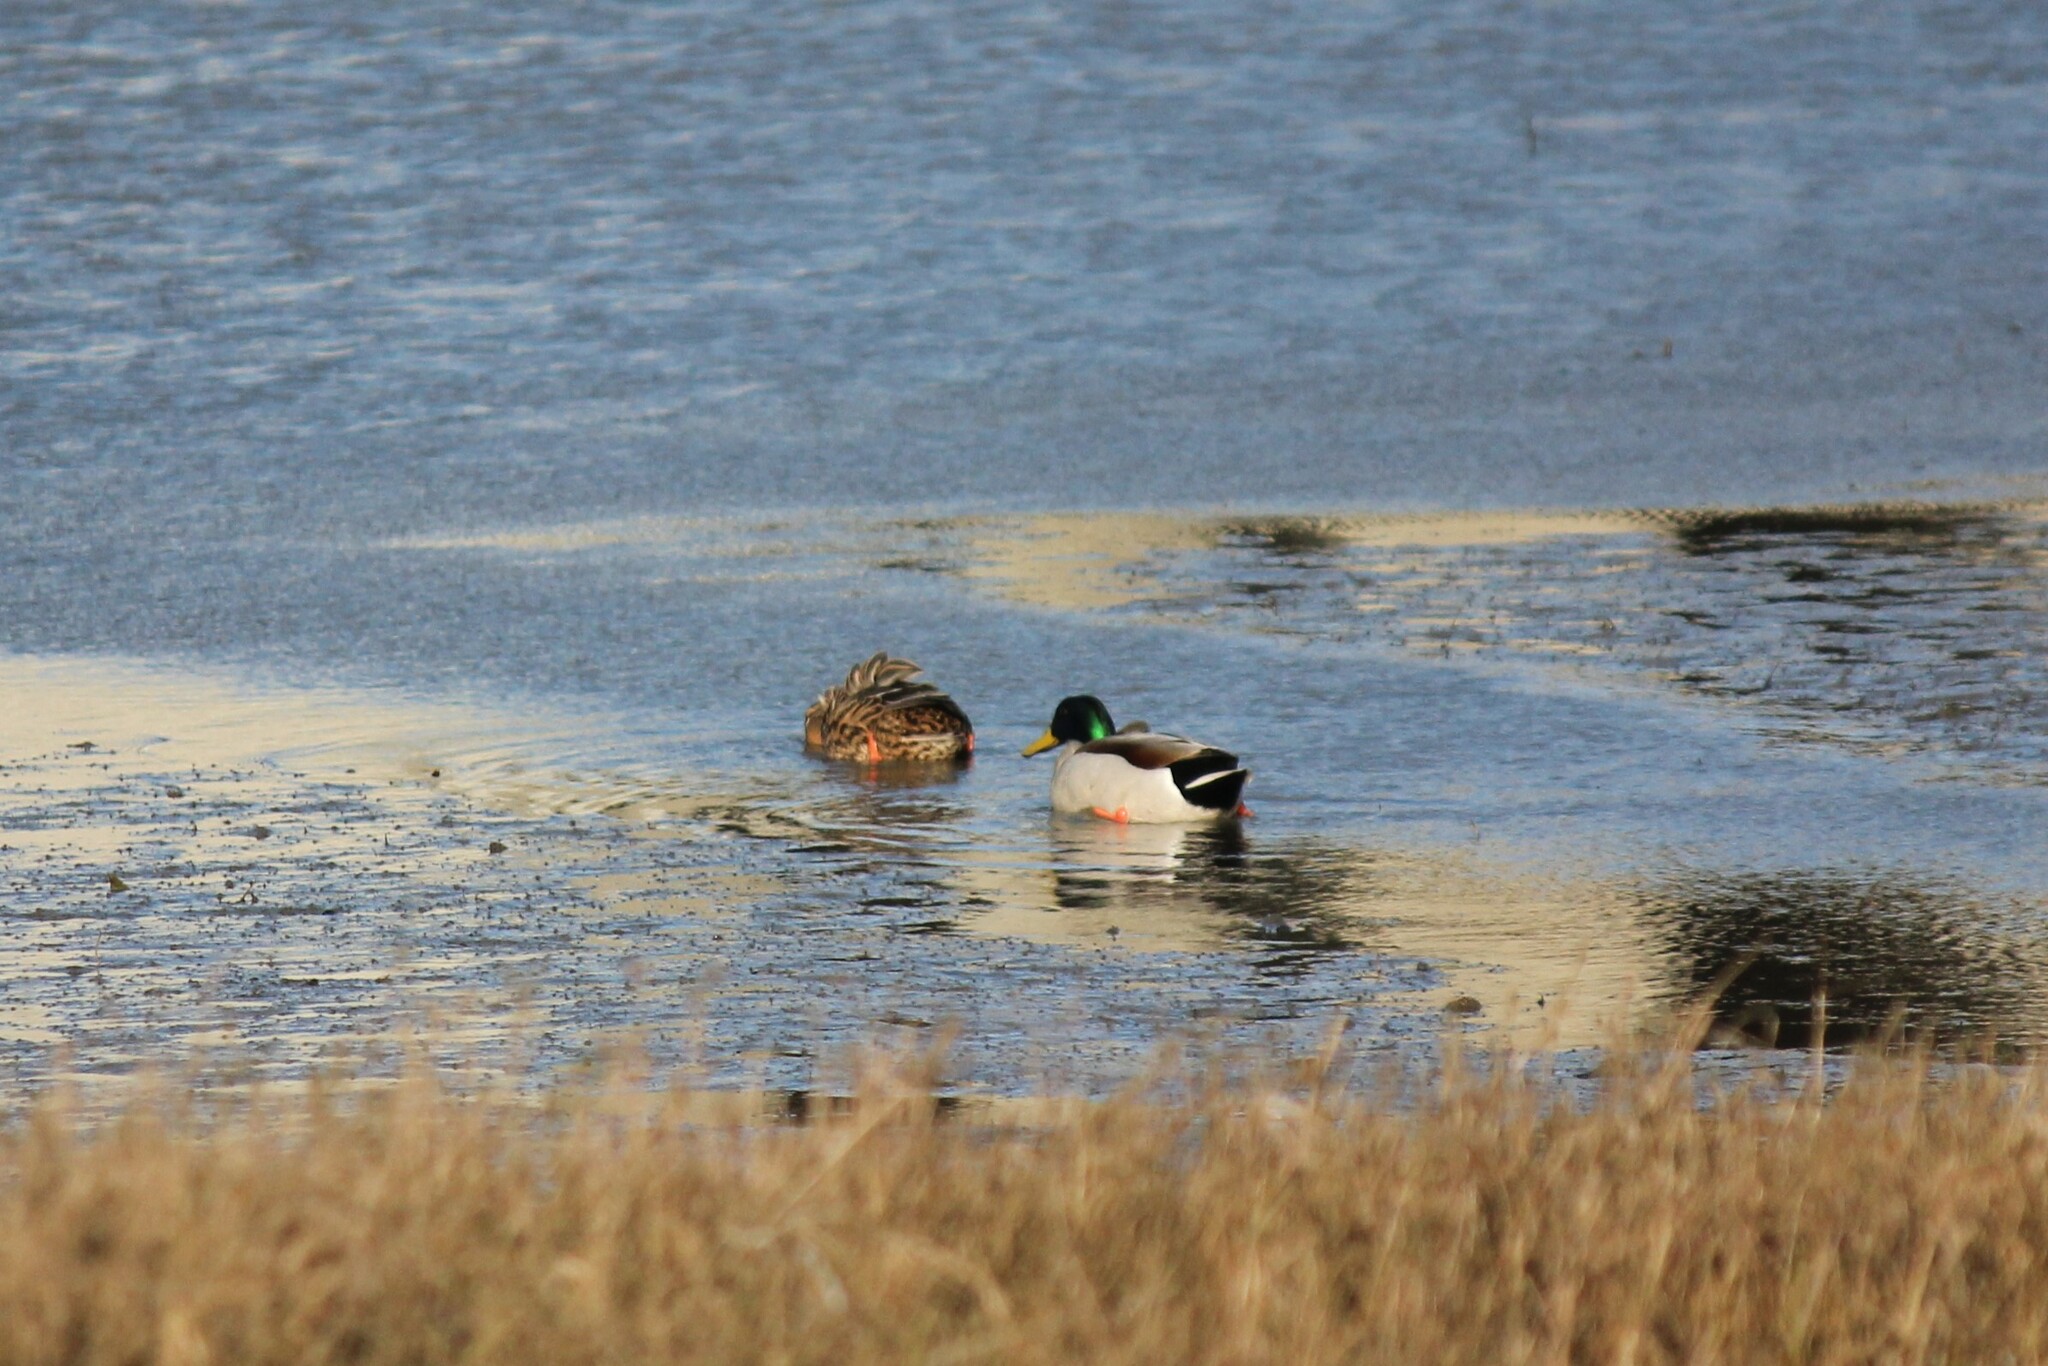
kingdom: Animalia
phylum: Chordata
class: Aves
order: Anseriformes
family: Anatidae
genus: Anas
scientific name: Anas platyrhynchos
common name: Mallard
